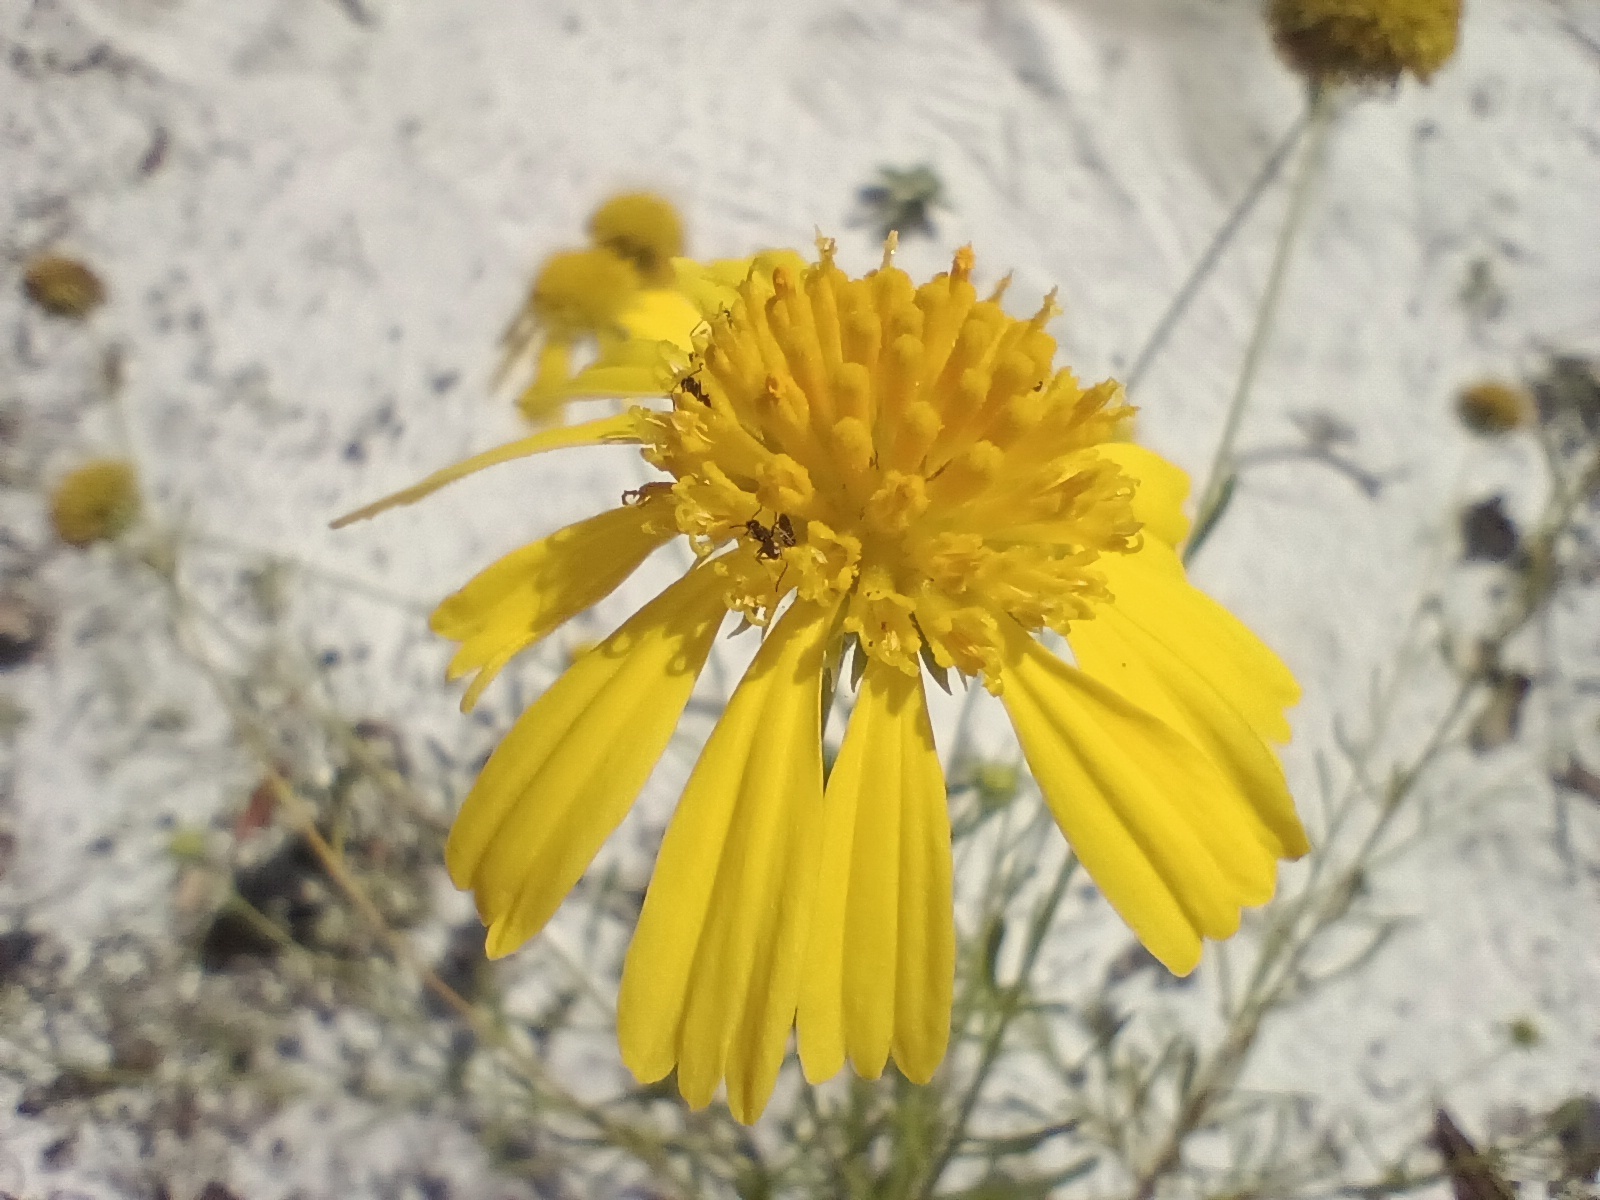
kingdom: Plantae
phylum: Tracheophyta
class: Magnoliopsida
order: Asterales
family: Asteraceae
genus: Balduina
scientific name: Balduina angustifolia
